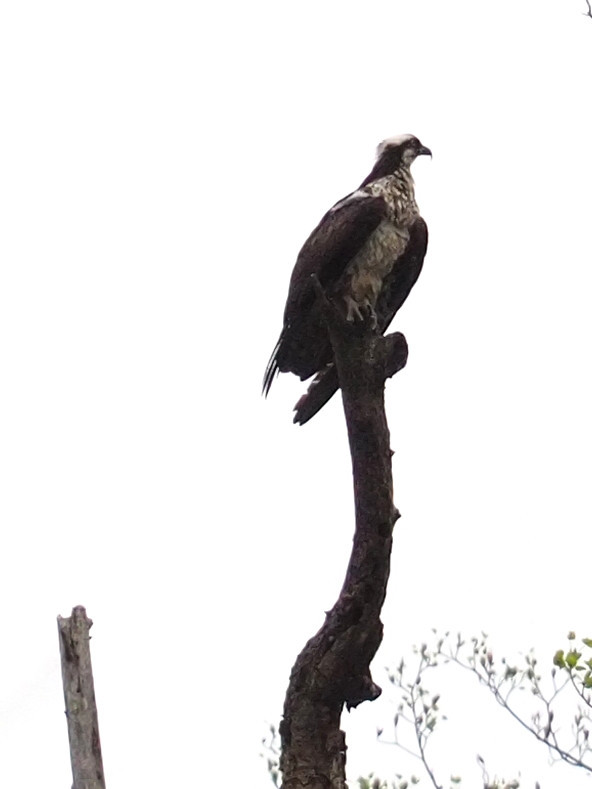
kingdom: Animalia
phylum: Chordata
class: Aves
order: Accipitriformes
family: Pandionidae
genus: Pandion
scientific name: Pandion haliaetus
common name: Osprey
